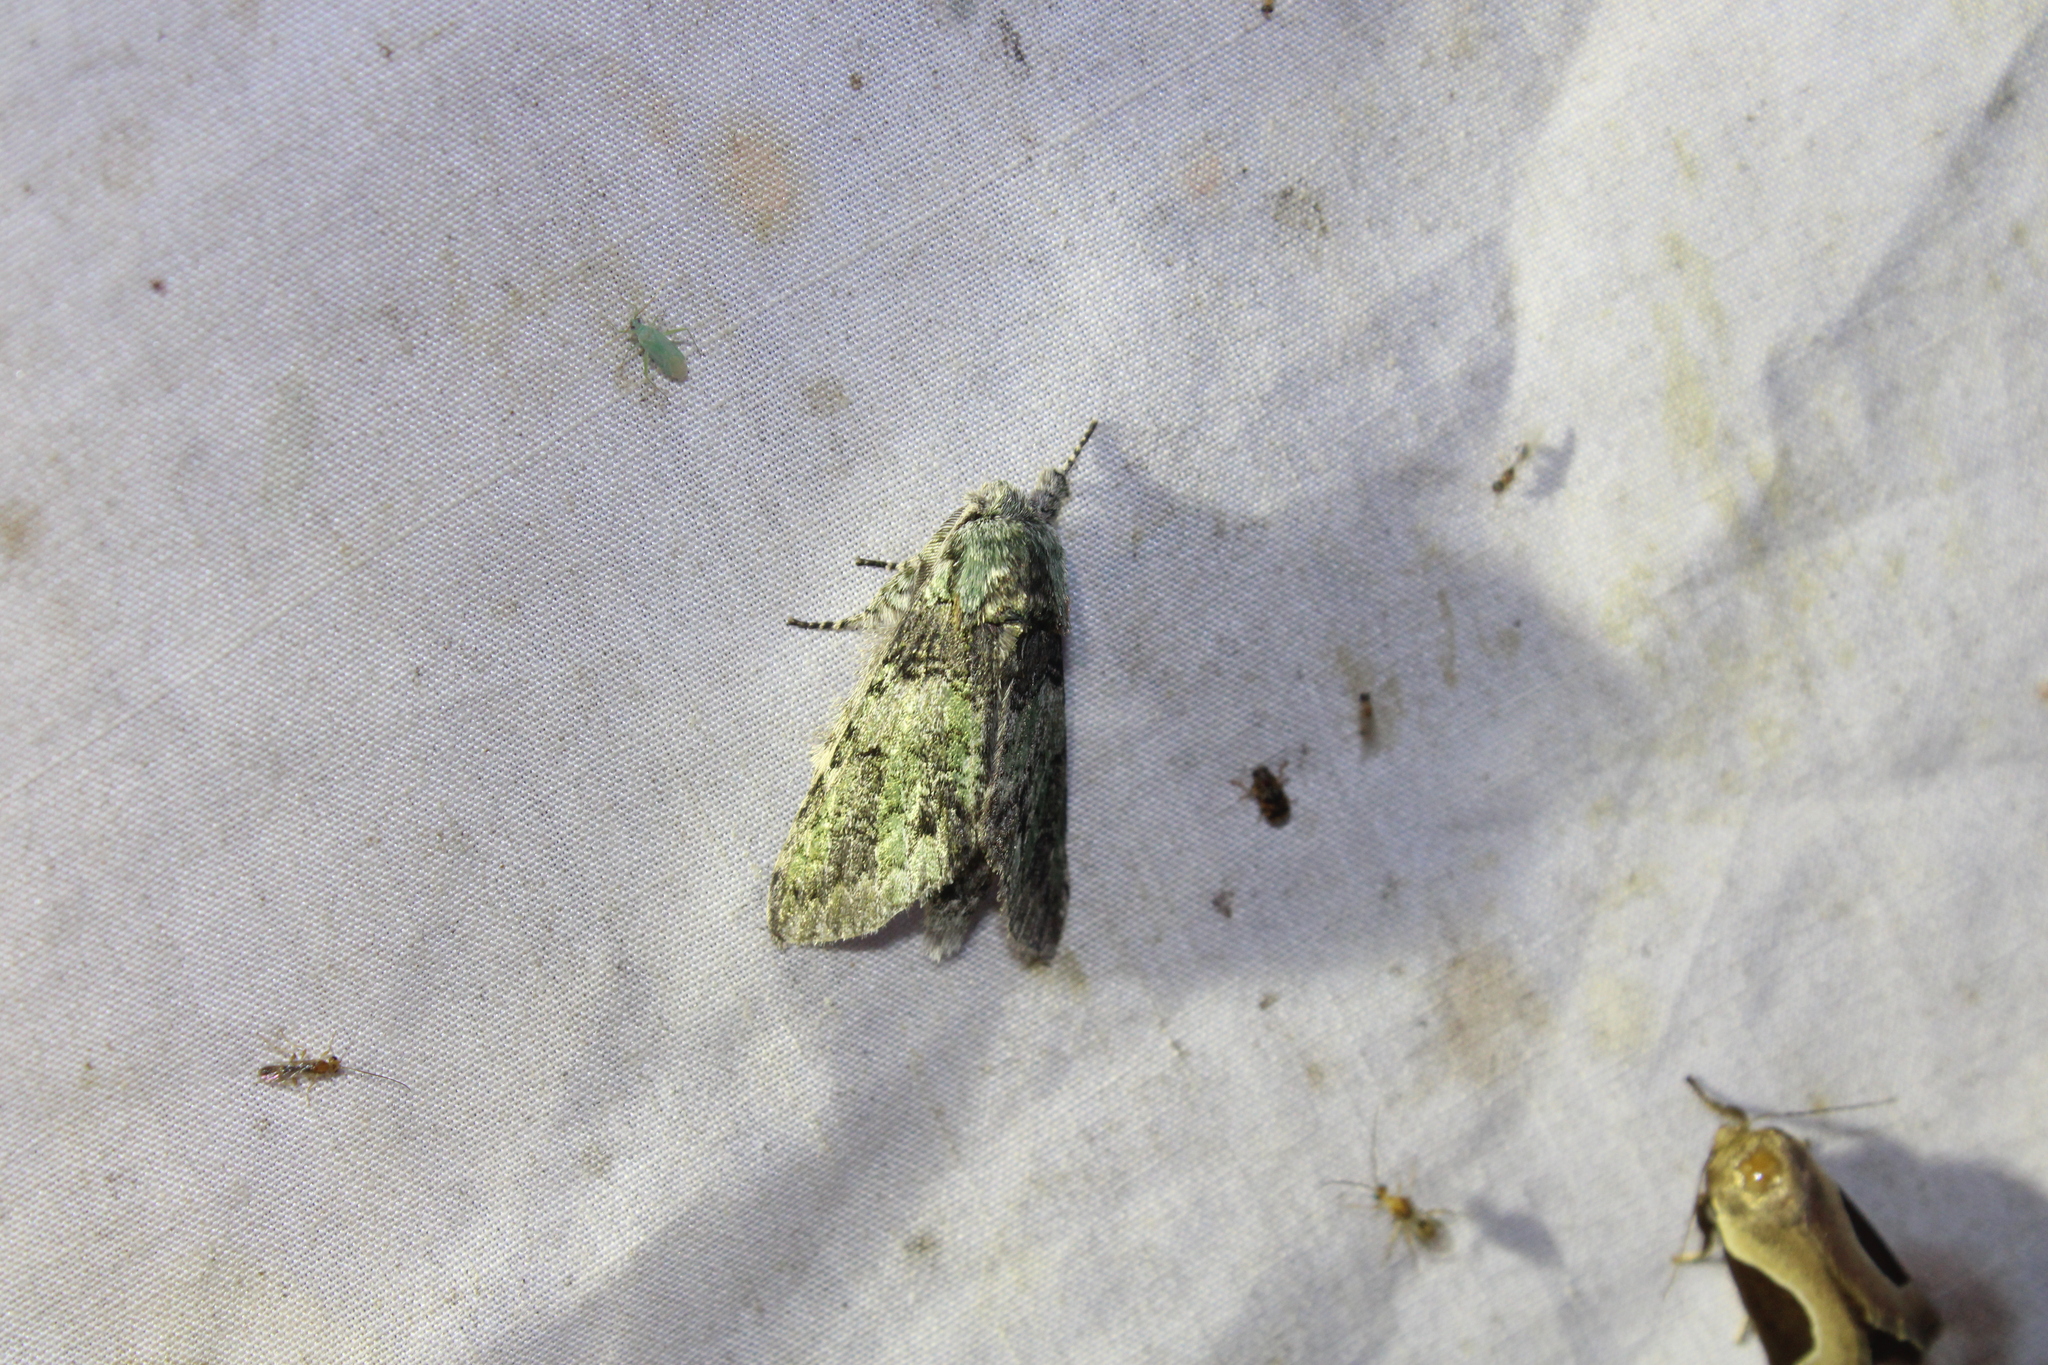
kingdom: Animalia
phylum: Arthropoda
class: Insecta
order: Lepidoptera
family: Notodontidae
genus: Macrurocampa
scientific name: Macrurocampa marthesia
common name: Mottled prominent
